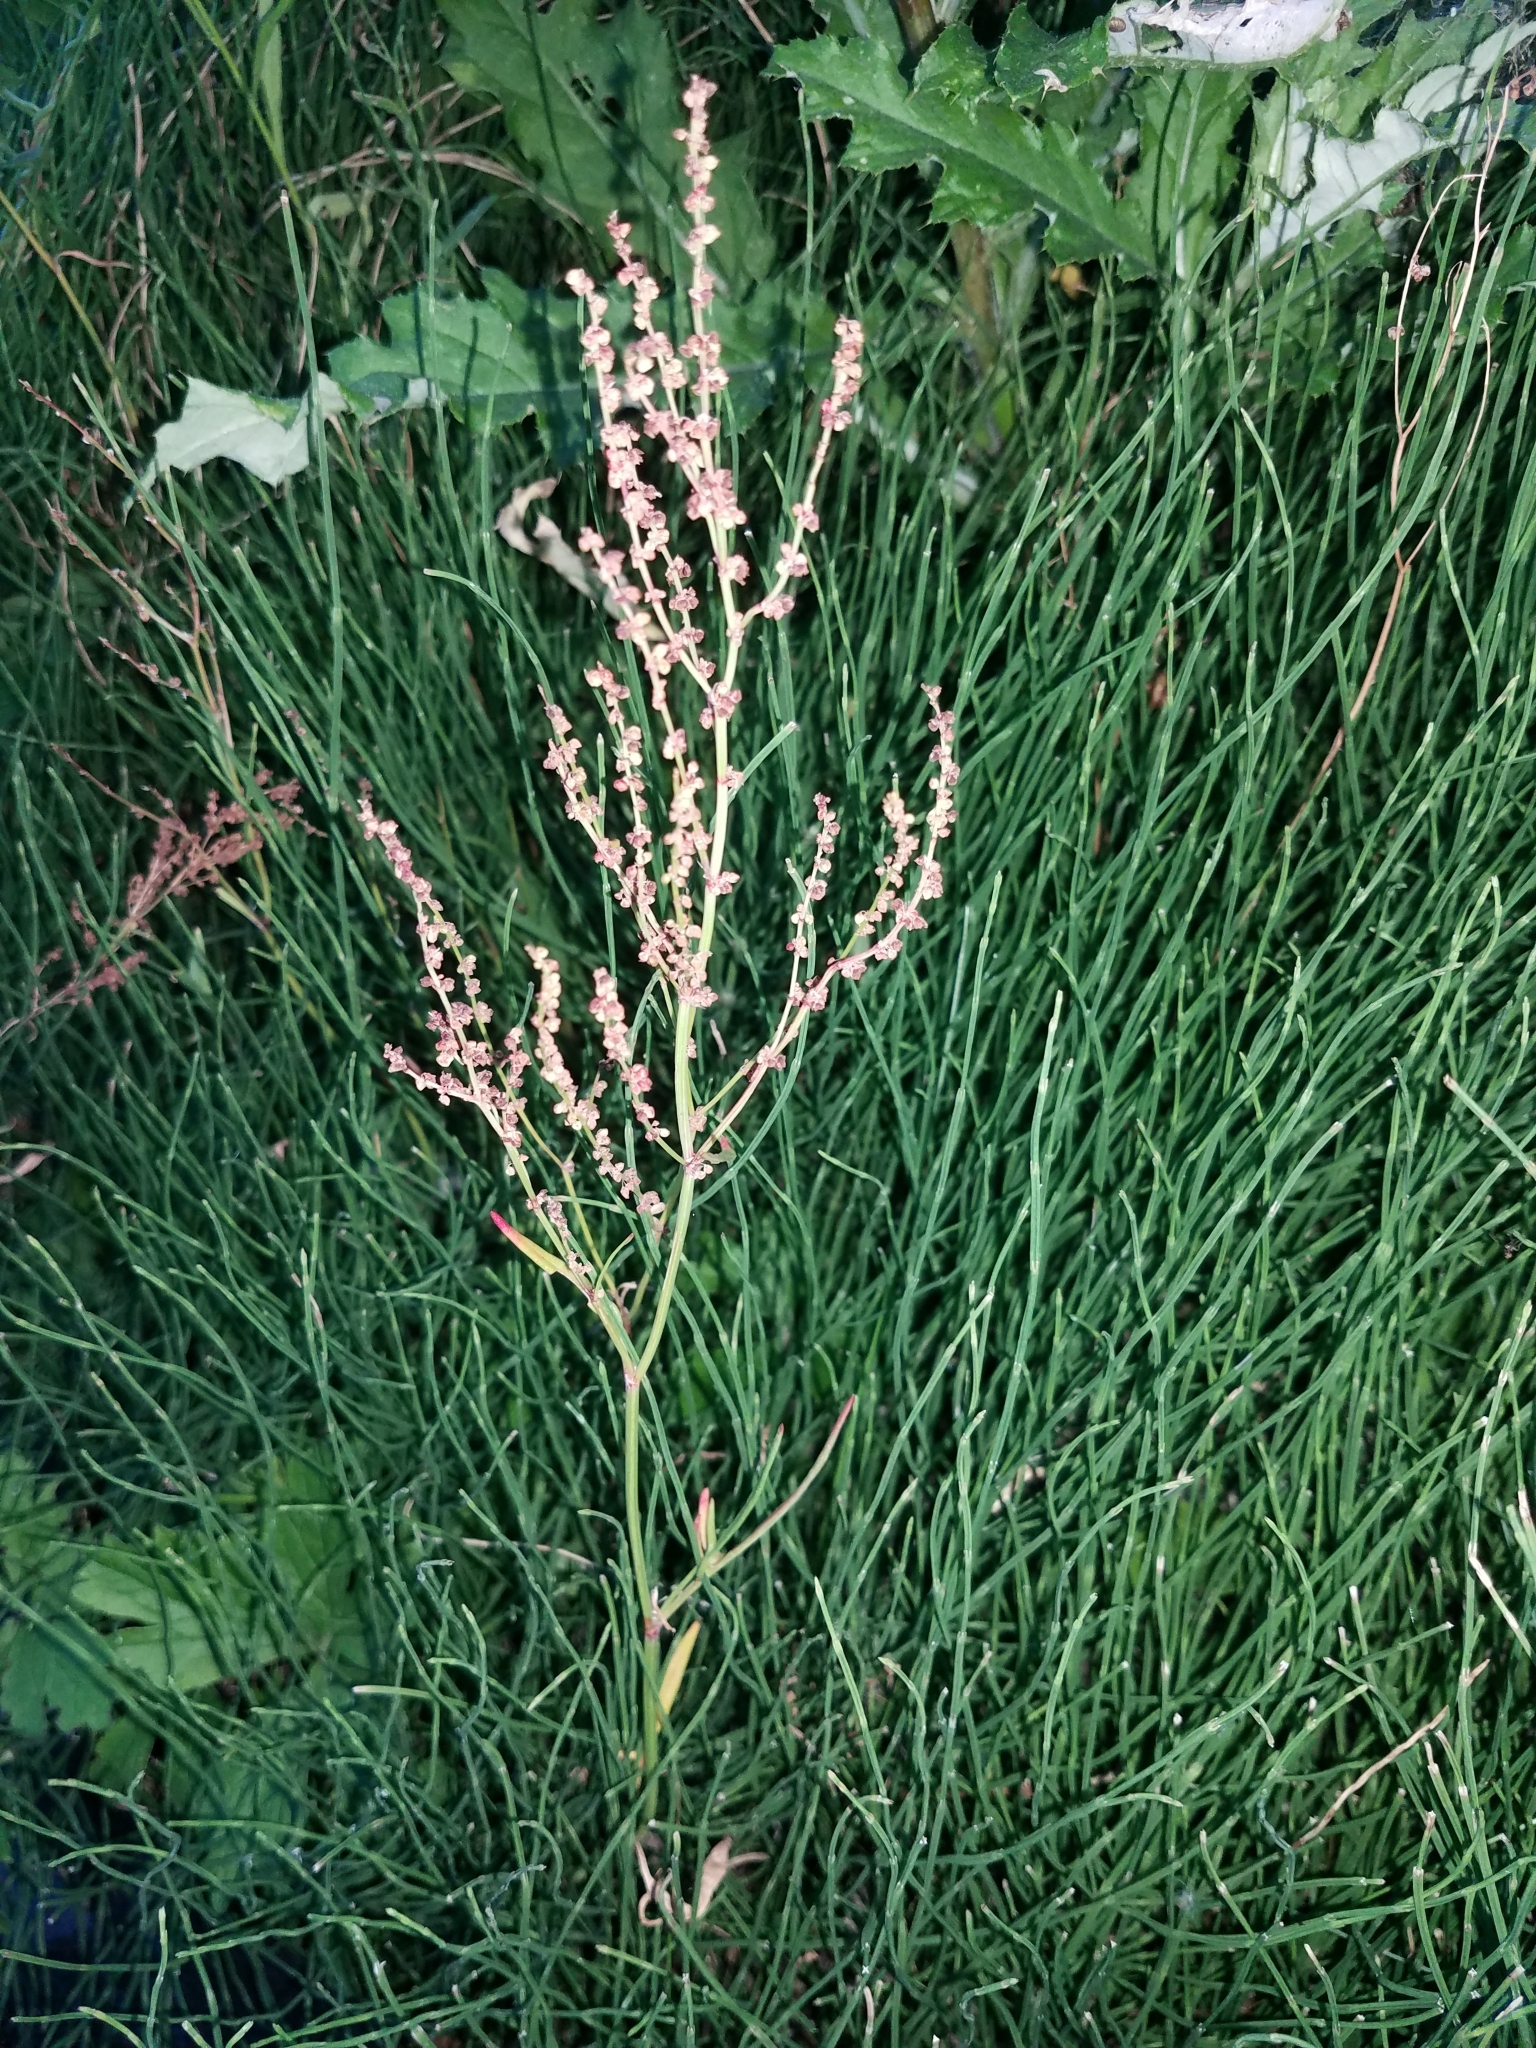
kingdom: Plantae
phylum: Tracheophyta
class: Magnoliopsida
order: Caryophyllales
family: Polygonaceae
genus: Rumex
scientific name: Rumex acetosella
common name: Common sheep sorrel
